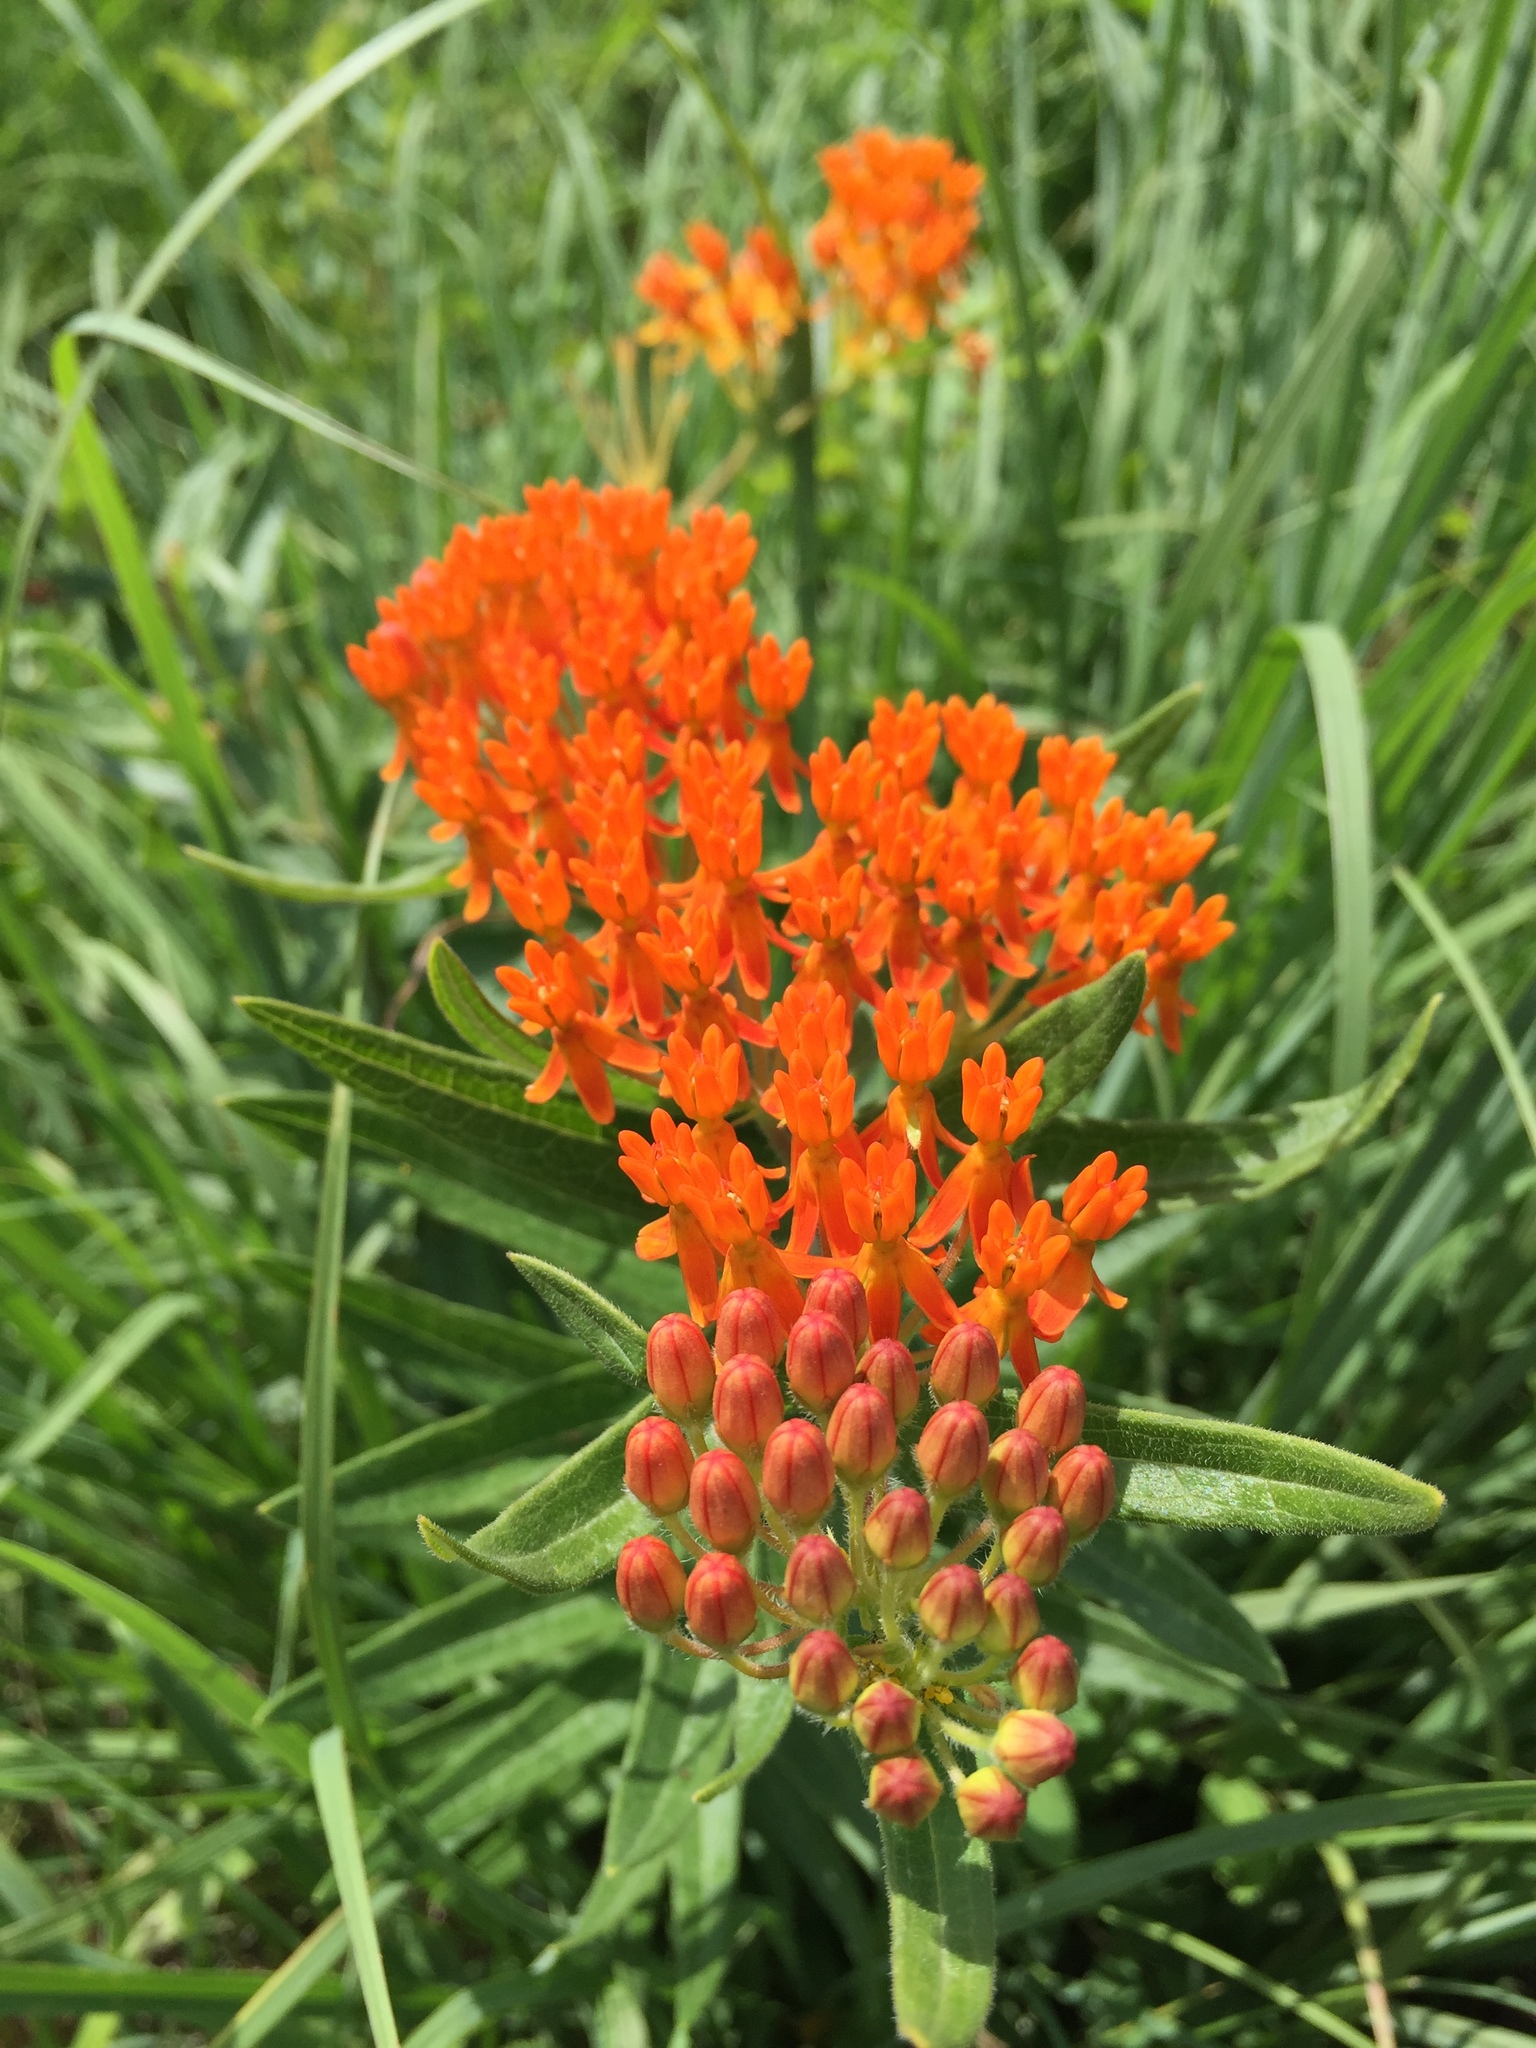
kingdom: Plantae
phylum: Tracheophyta
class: Magnoliopsida
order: Gentianales
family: Apocynaceae
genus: Asclepias
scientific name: Asclepias tuberosa
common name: Butterfly milkweed
